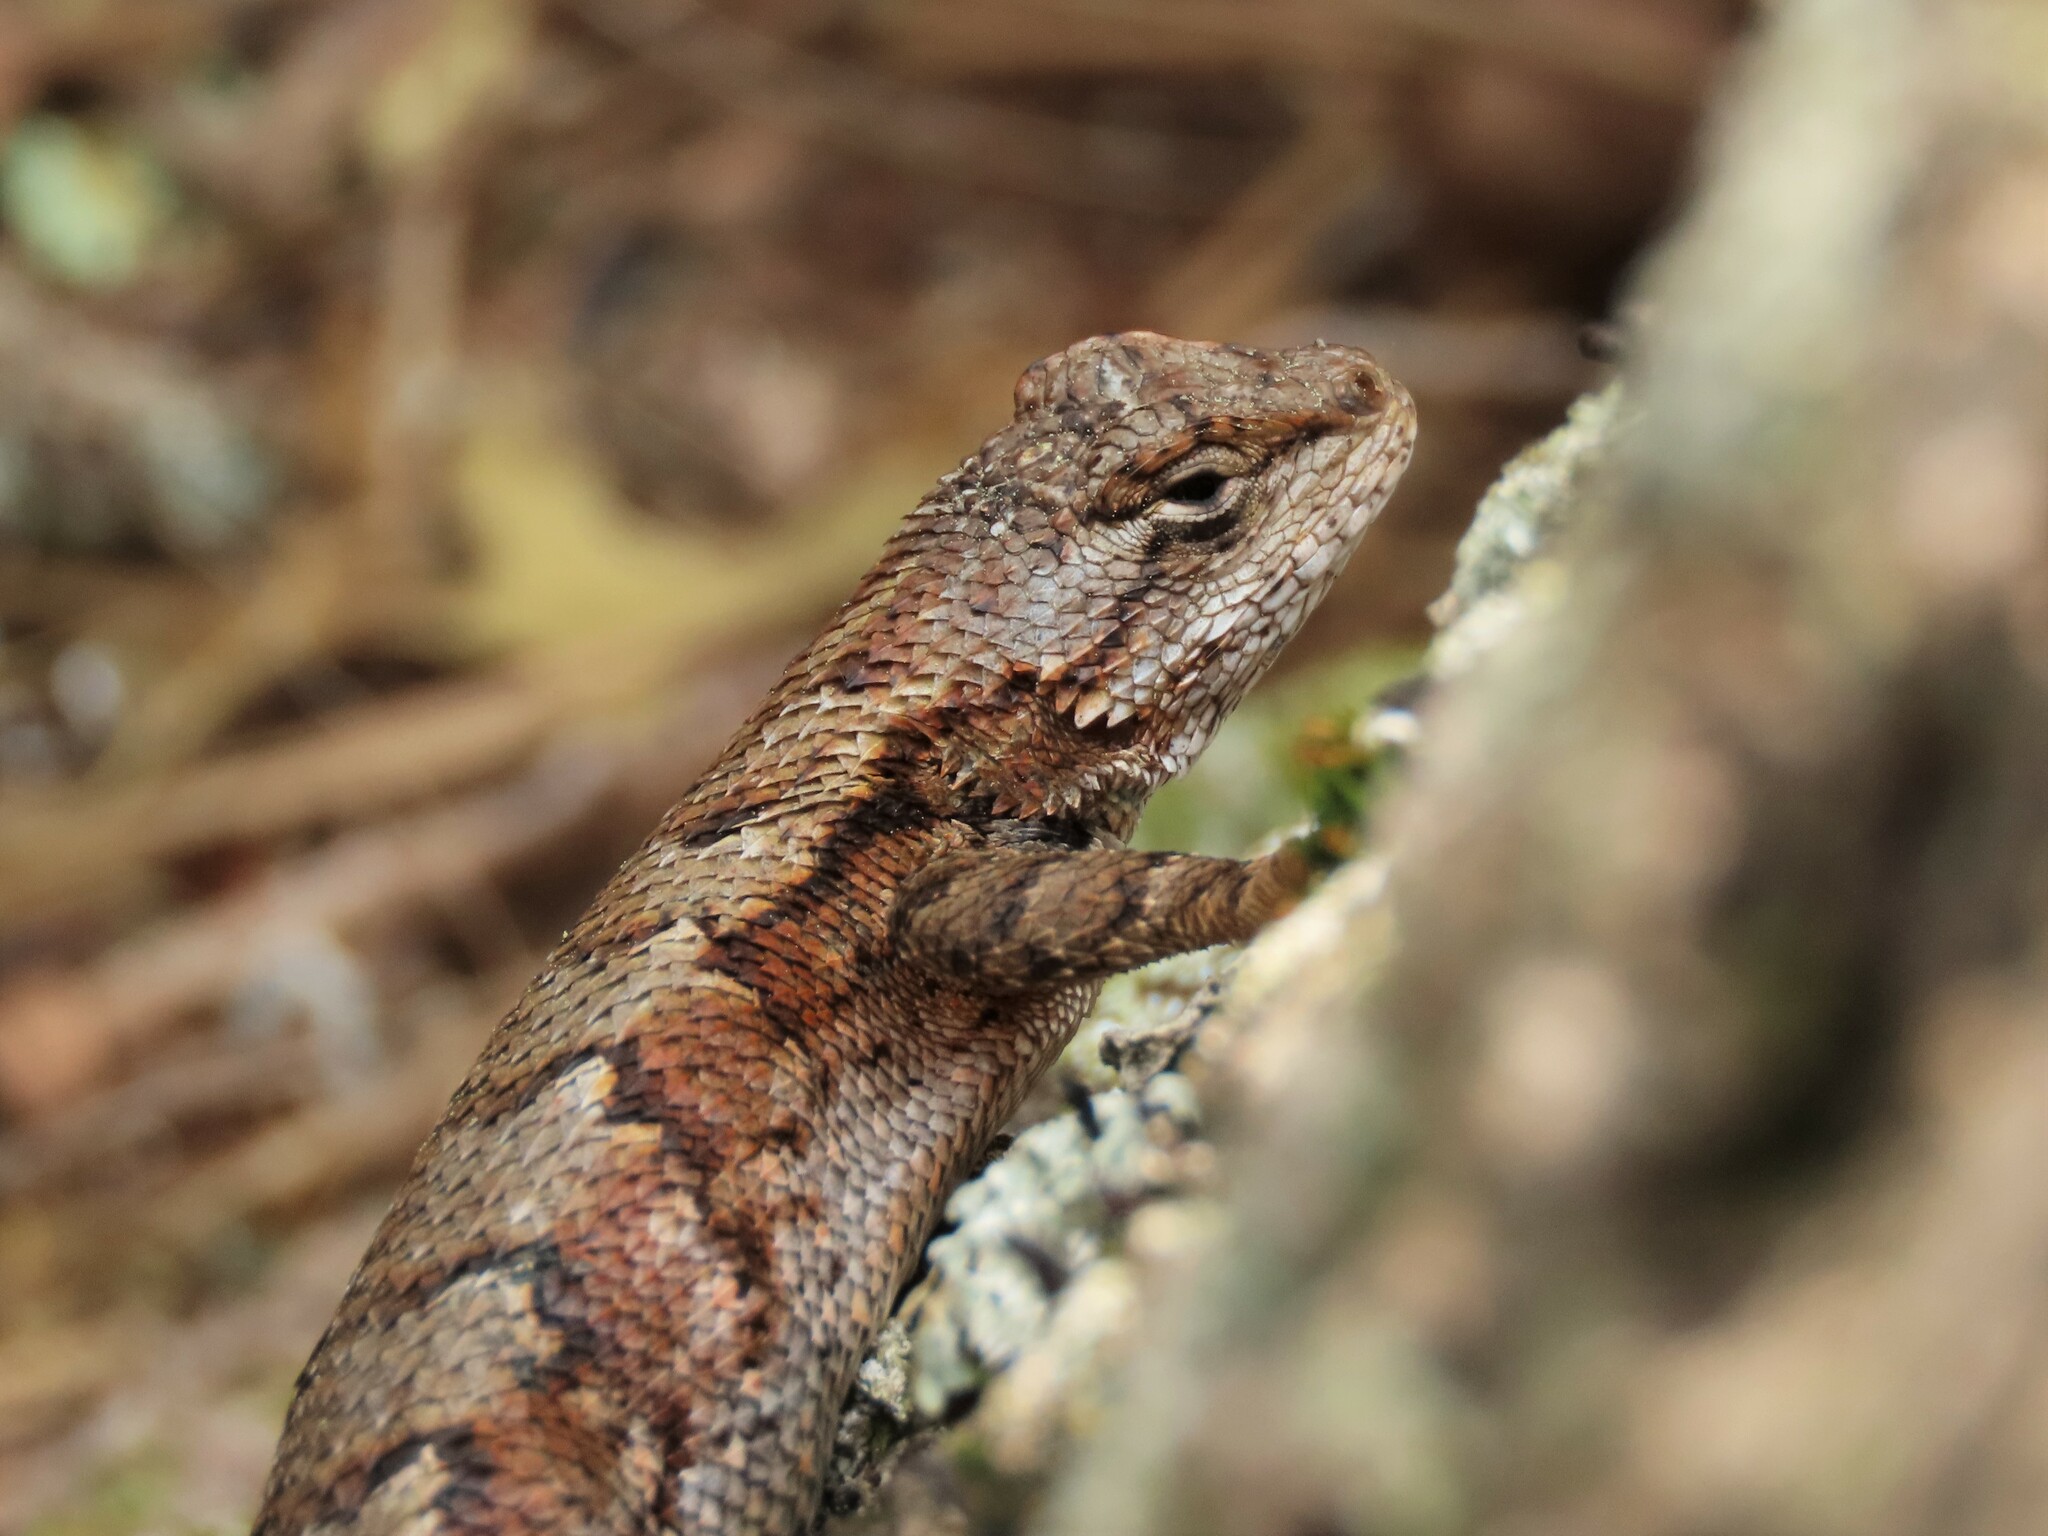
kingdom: Animalia
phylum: Chordata
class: Squamata
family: Phrynosomatidae
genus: Sceloporus
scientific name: Sceloporus undulatus
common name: Eastern fence lizard
